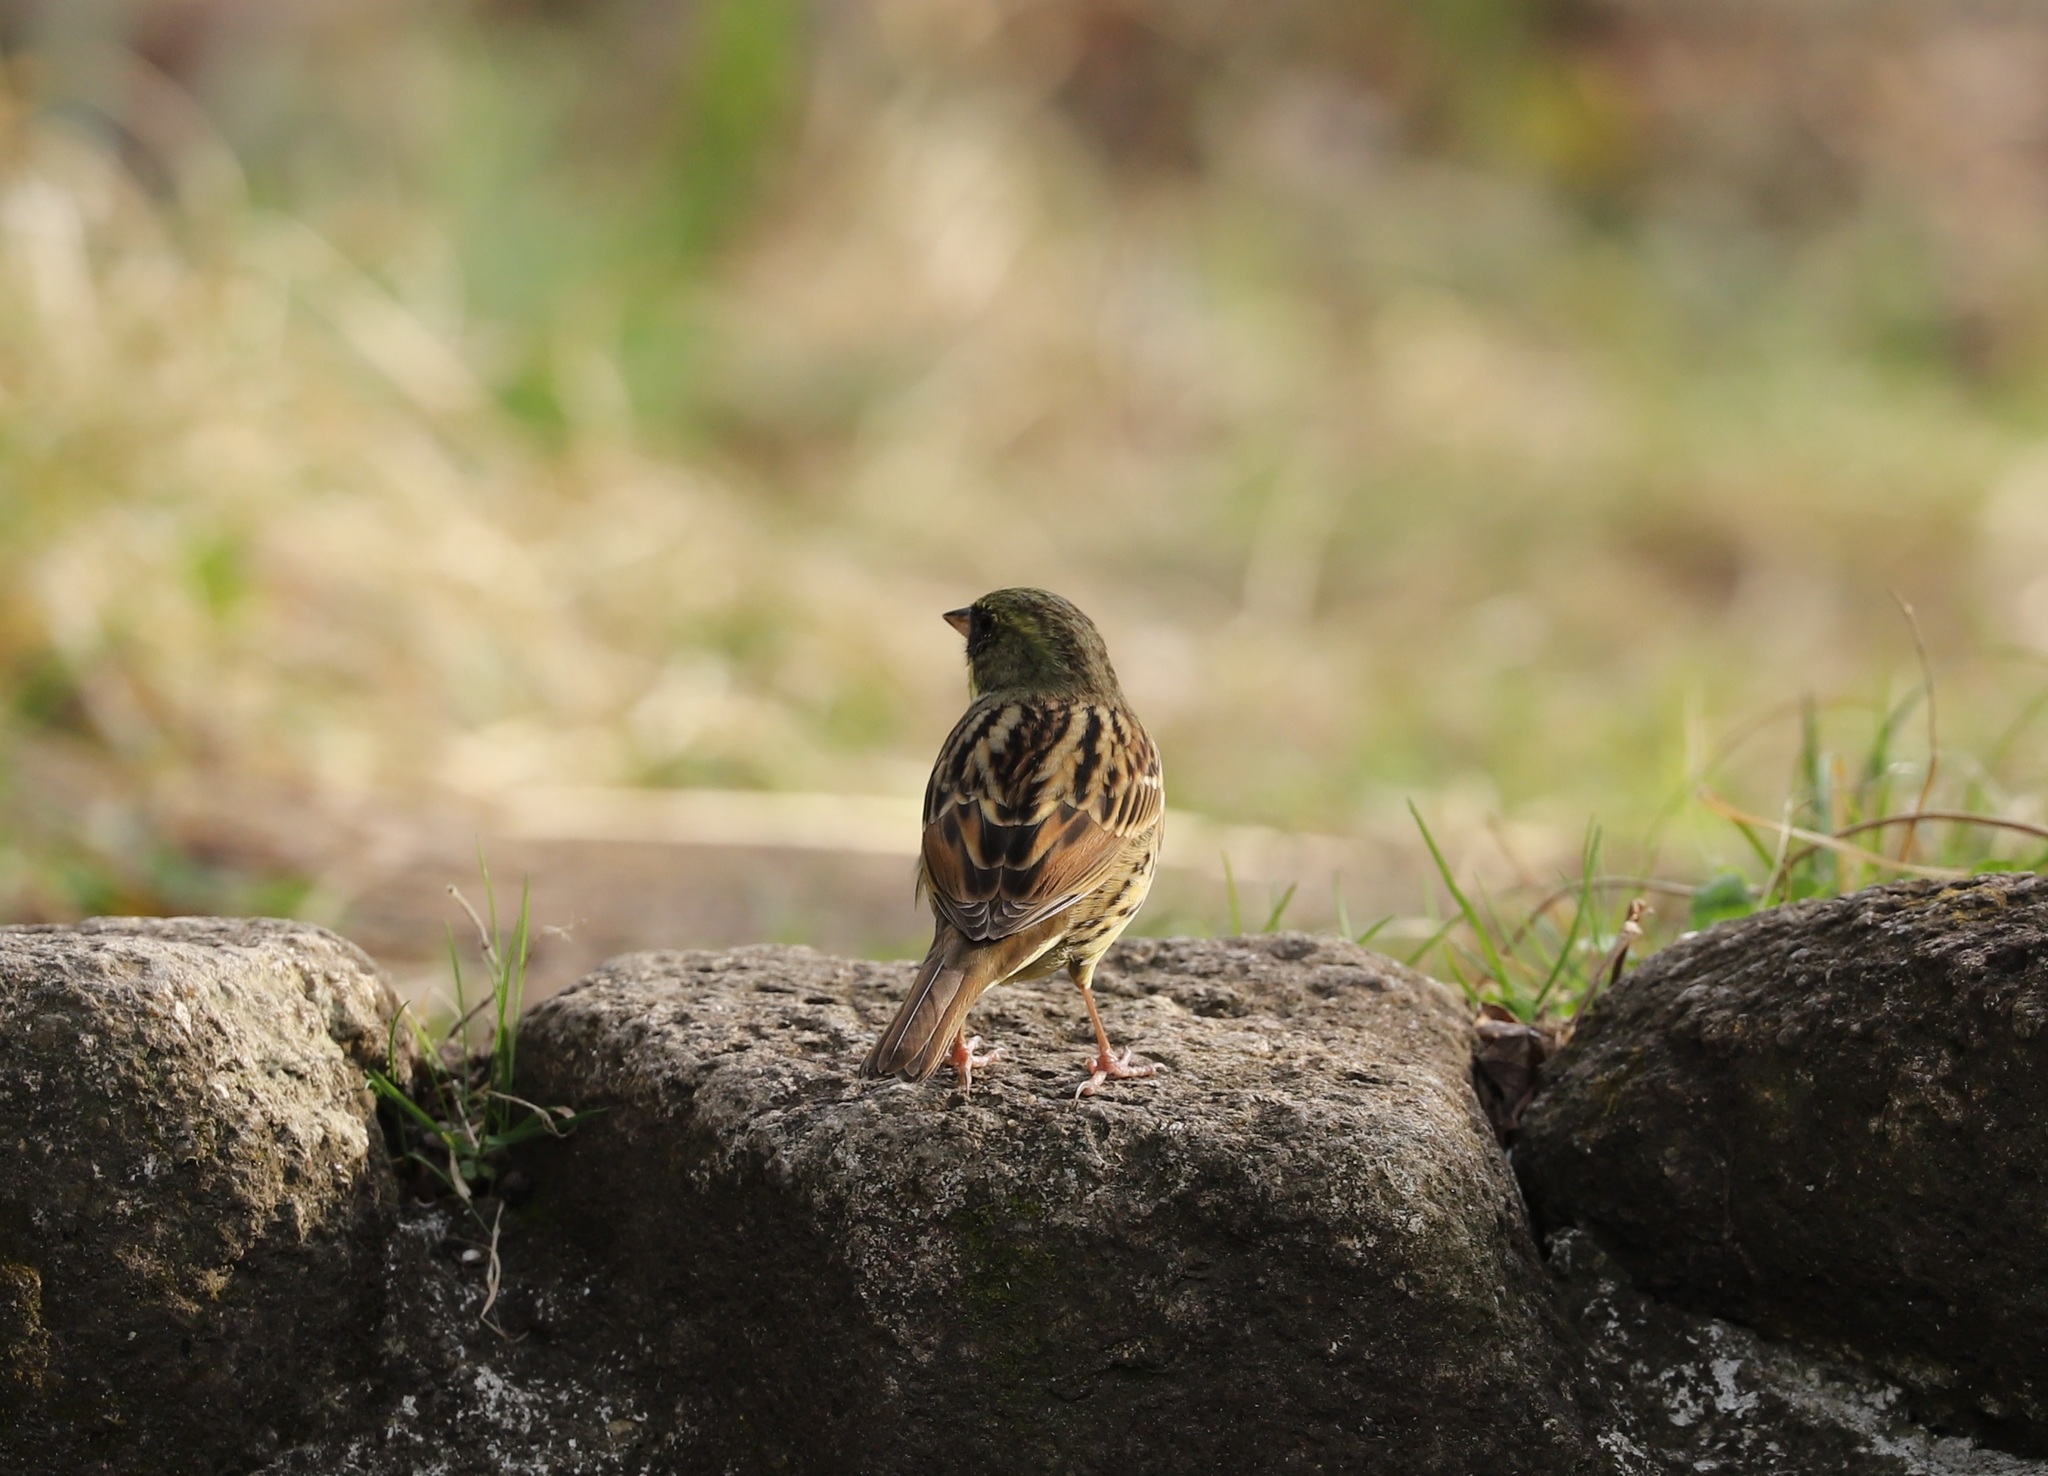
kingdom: Animalia
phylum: Chordata
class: Aves
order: Passeriformes
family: Emberizidae
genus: Emberiza
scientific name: Emberiza personata
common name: Masked bunting
